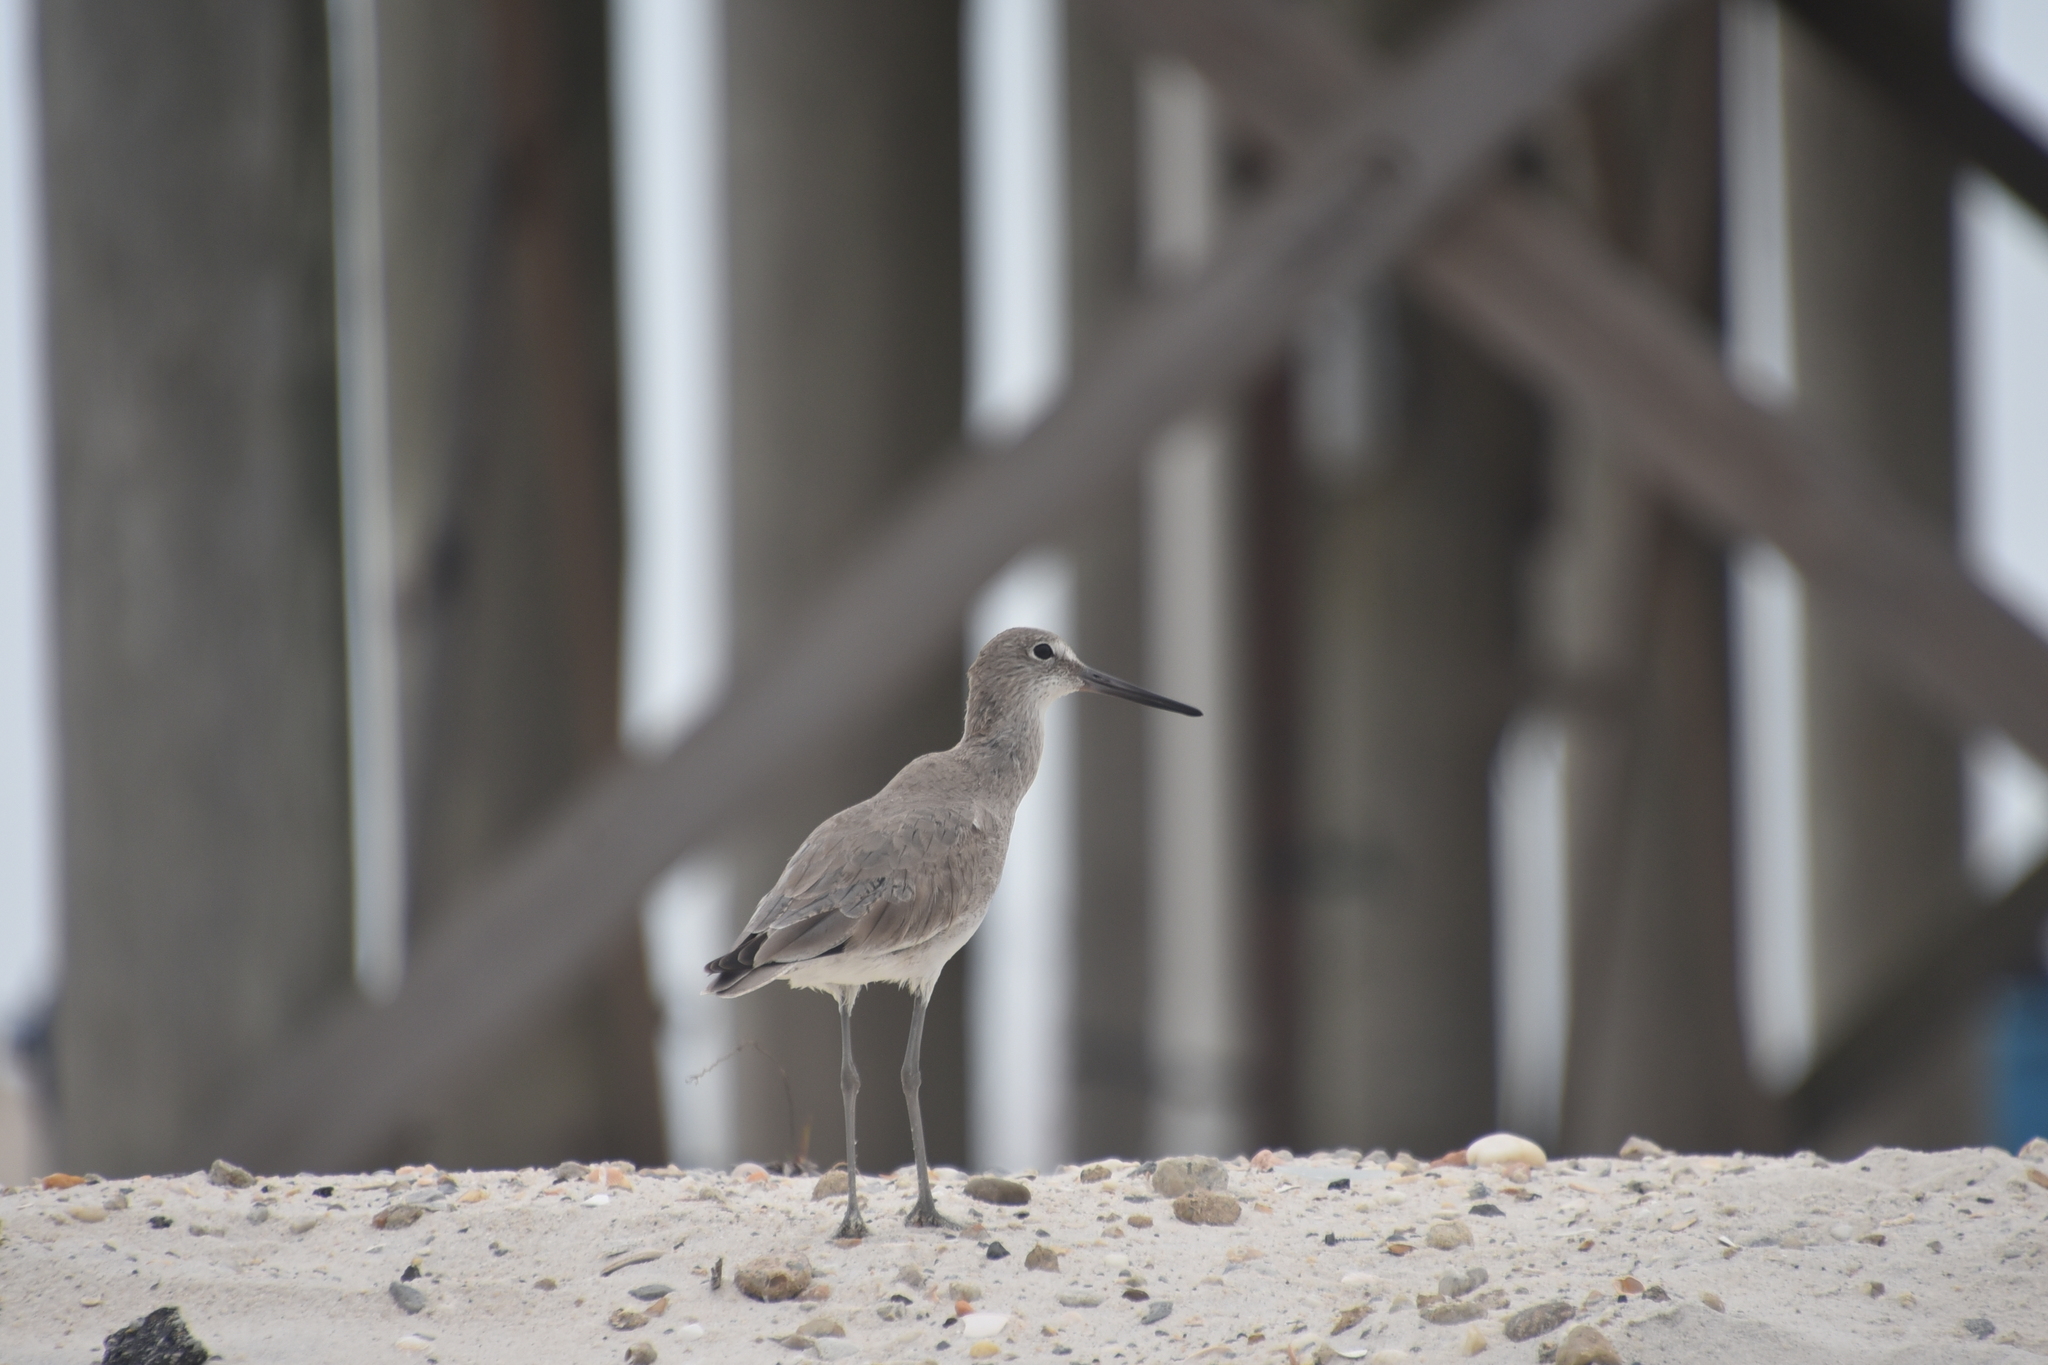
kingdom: Animalia
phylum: Chordata
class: Aves
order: Charadriiformes
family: Scolopacidae
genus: Tringa
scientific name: Tringa semipalmata
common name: Willet
